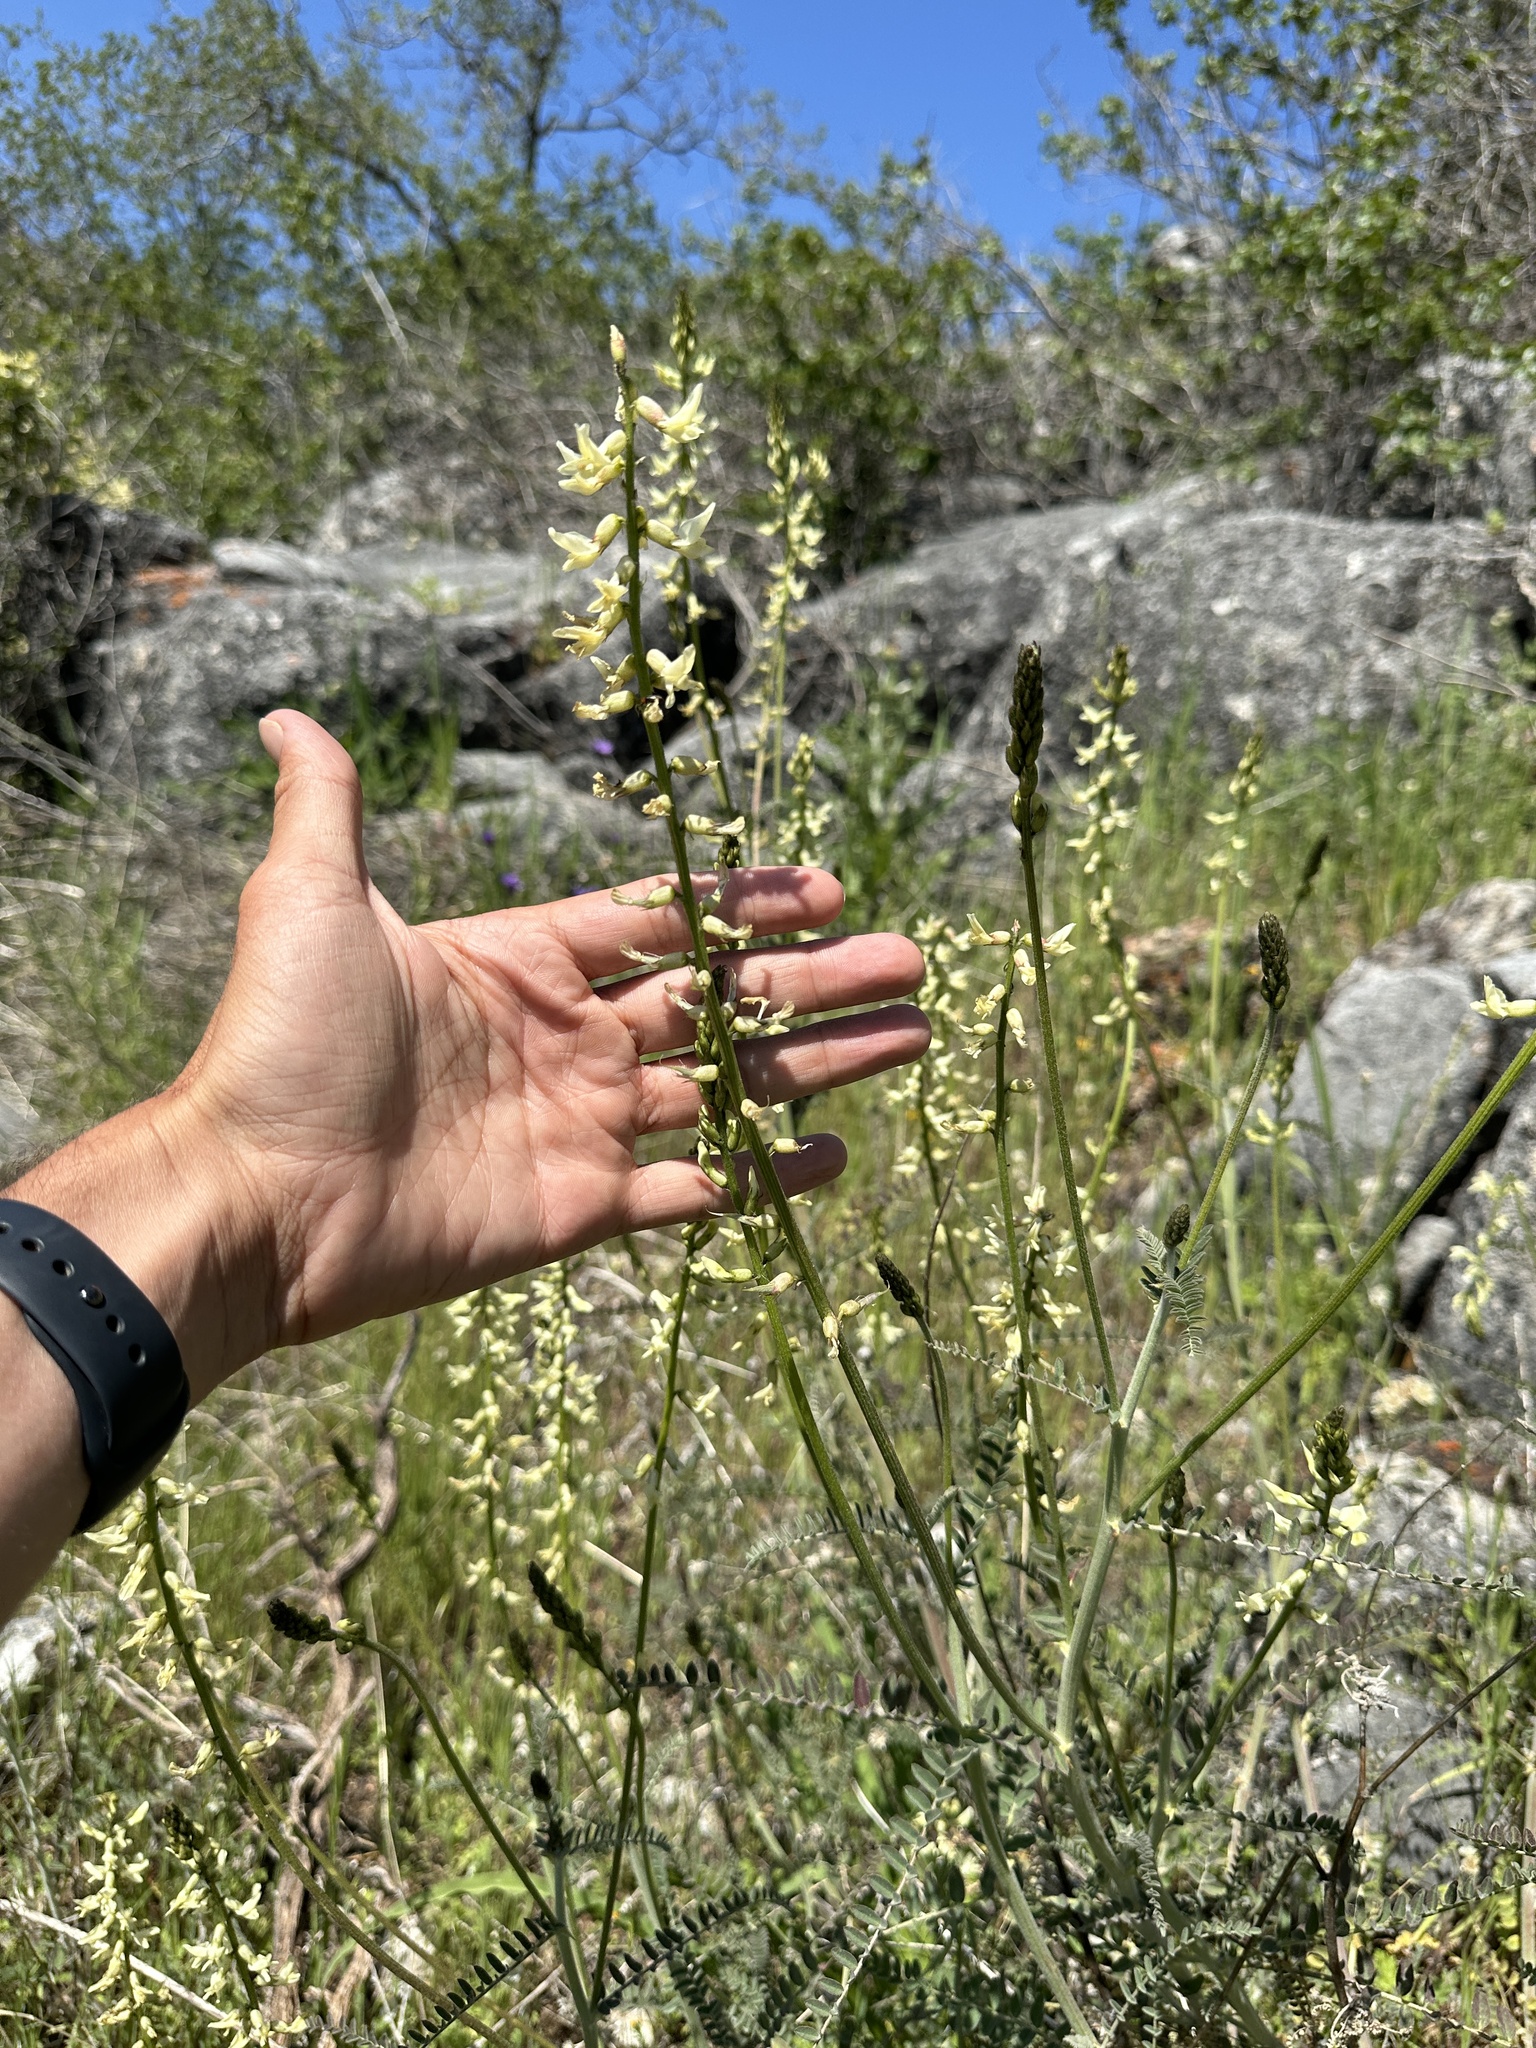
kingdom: Plantae
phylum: Tracheophyta
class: Magnoliopsida
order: Fabales
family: Fabaceae
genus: Astragalus
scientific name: Astragalus congdonii
